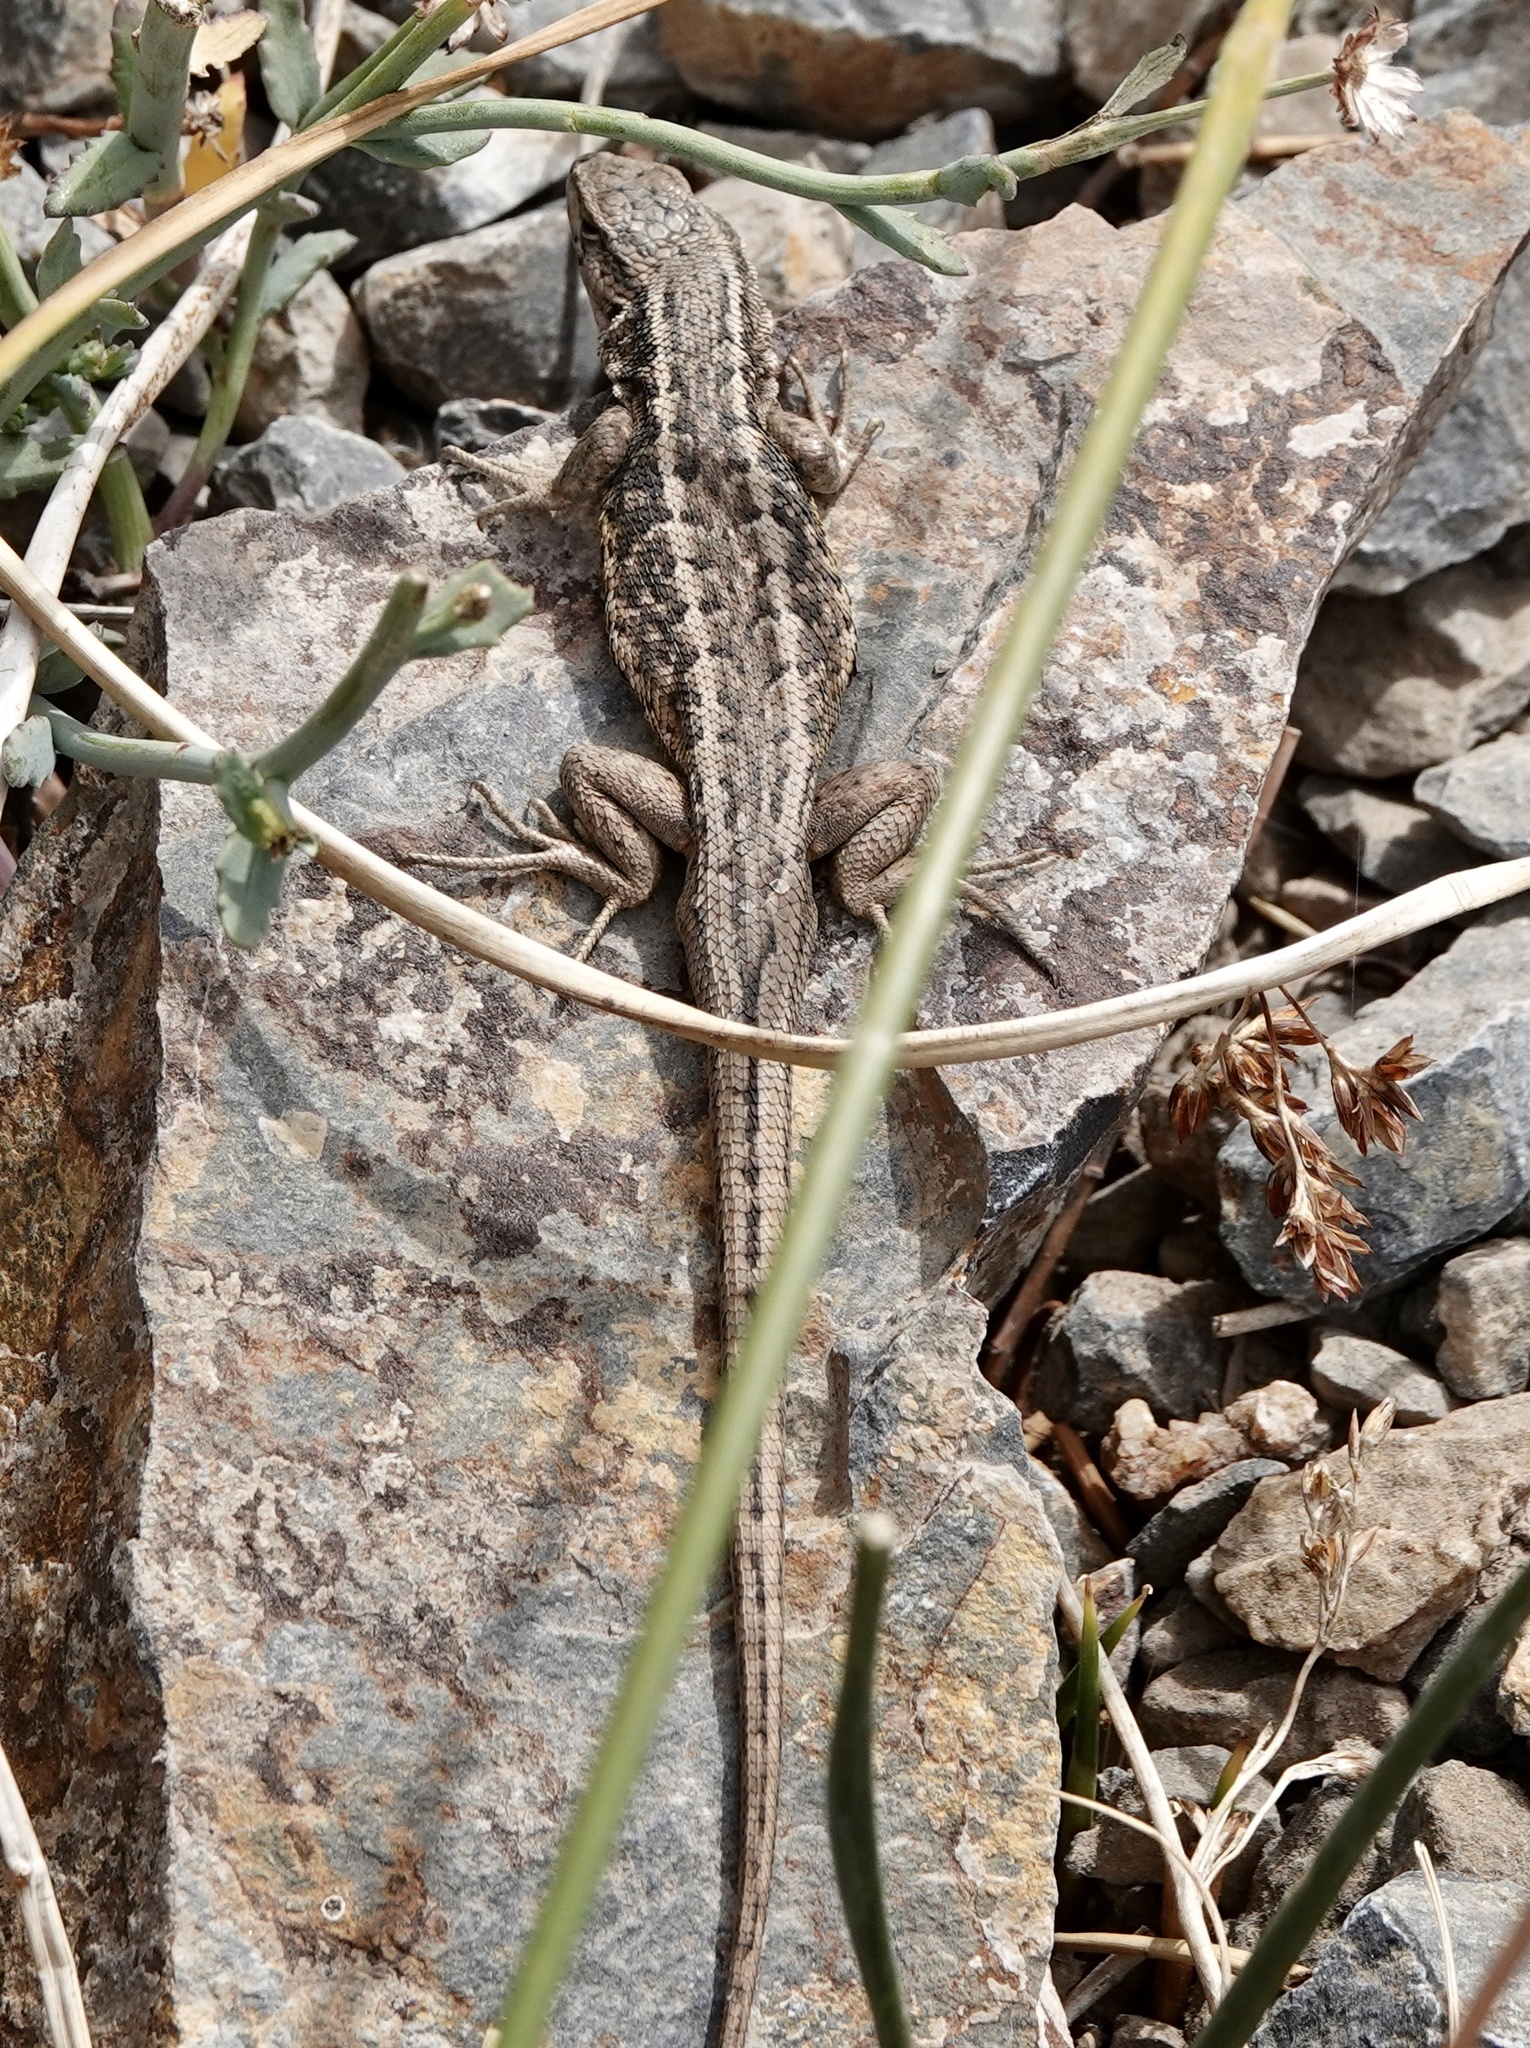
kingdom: Animalia
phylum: Chordata
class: Squamata
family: Liolaemidae
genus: Liolaemus
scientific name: Liolaemus moradoensis
